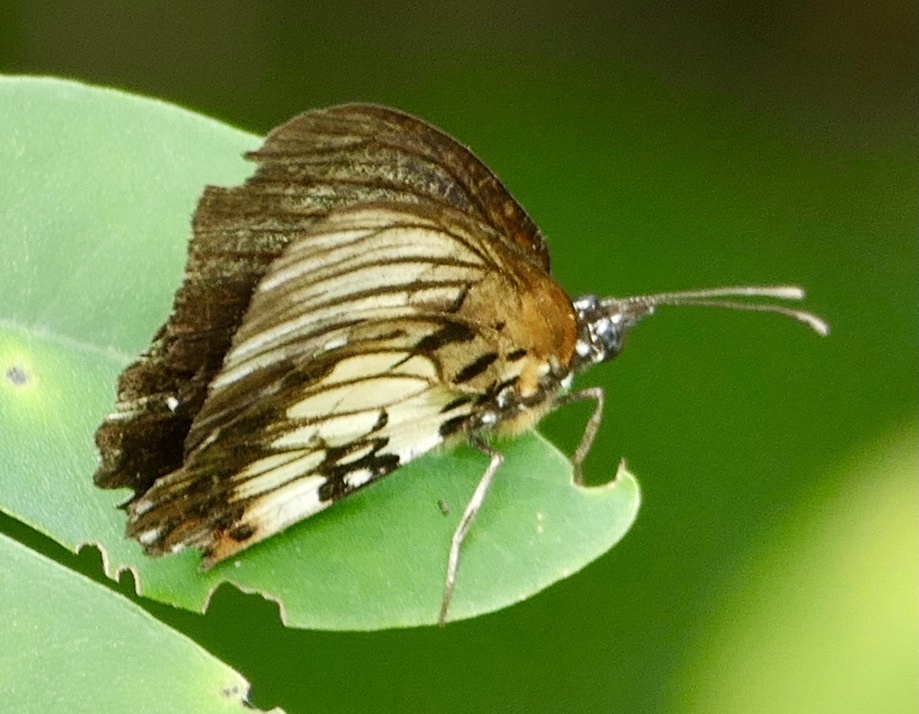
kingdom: Animalia
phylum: Arthropoda
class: Insecta
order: Lepidoptera
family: Nymphalidae
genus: Mesoxantha
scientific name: Mesoxantha ethosea
